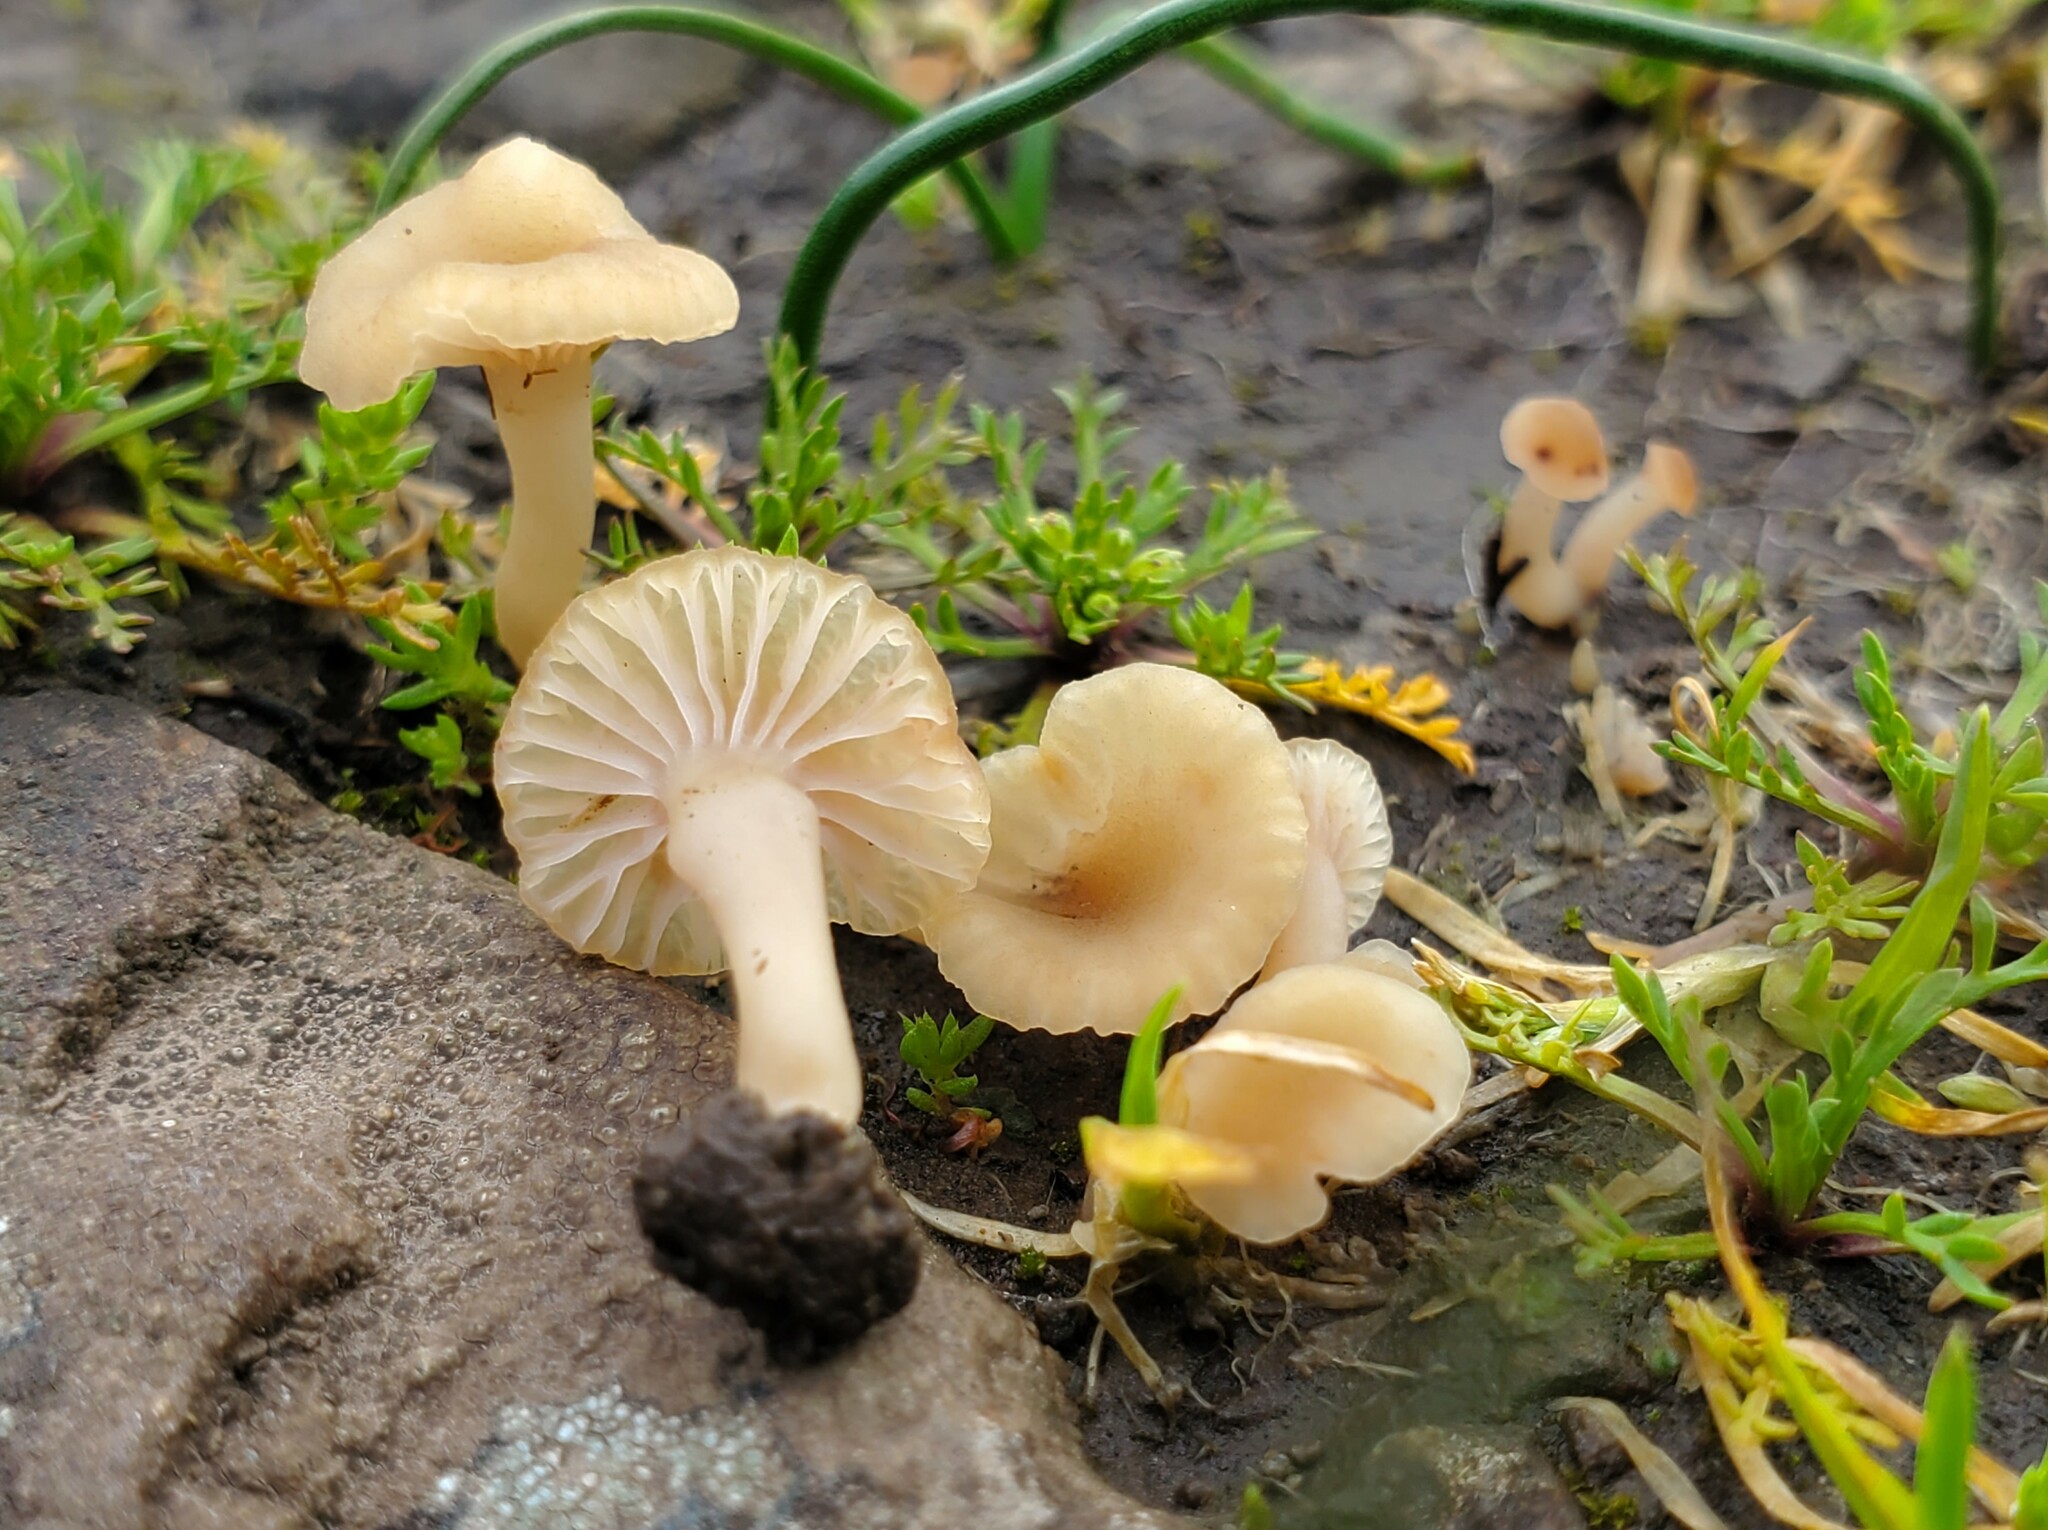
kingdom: Fungi
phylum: Basidiomycota
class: Agaricomycetes
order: Hymenochaetales
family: Rickenellaceae
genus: Contumyces
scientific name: Contumyces rosellus
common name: Rosy navel
